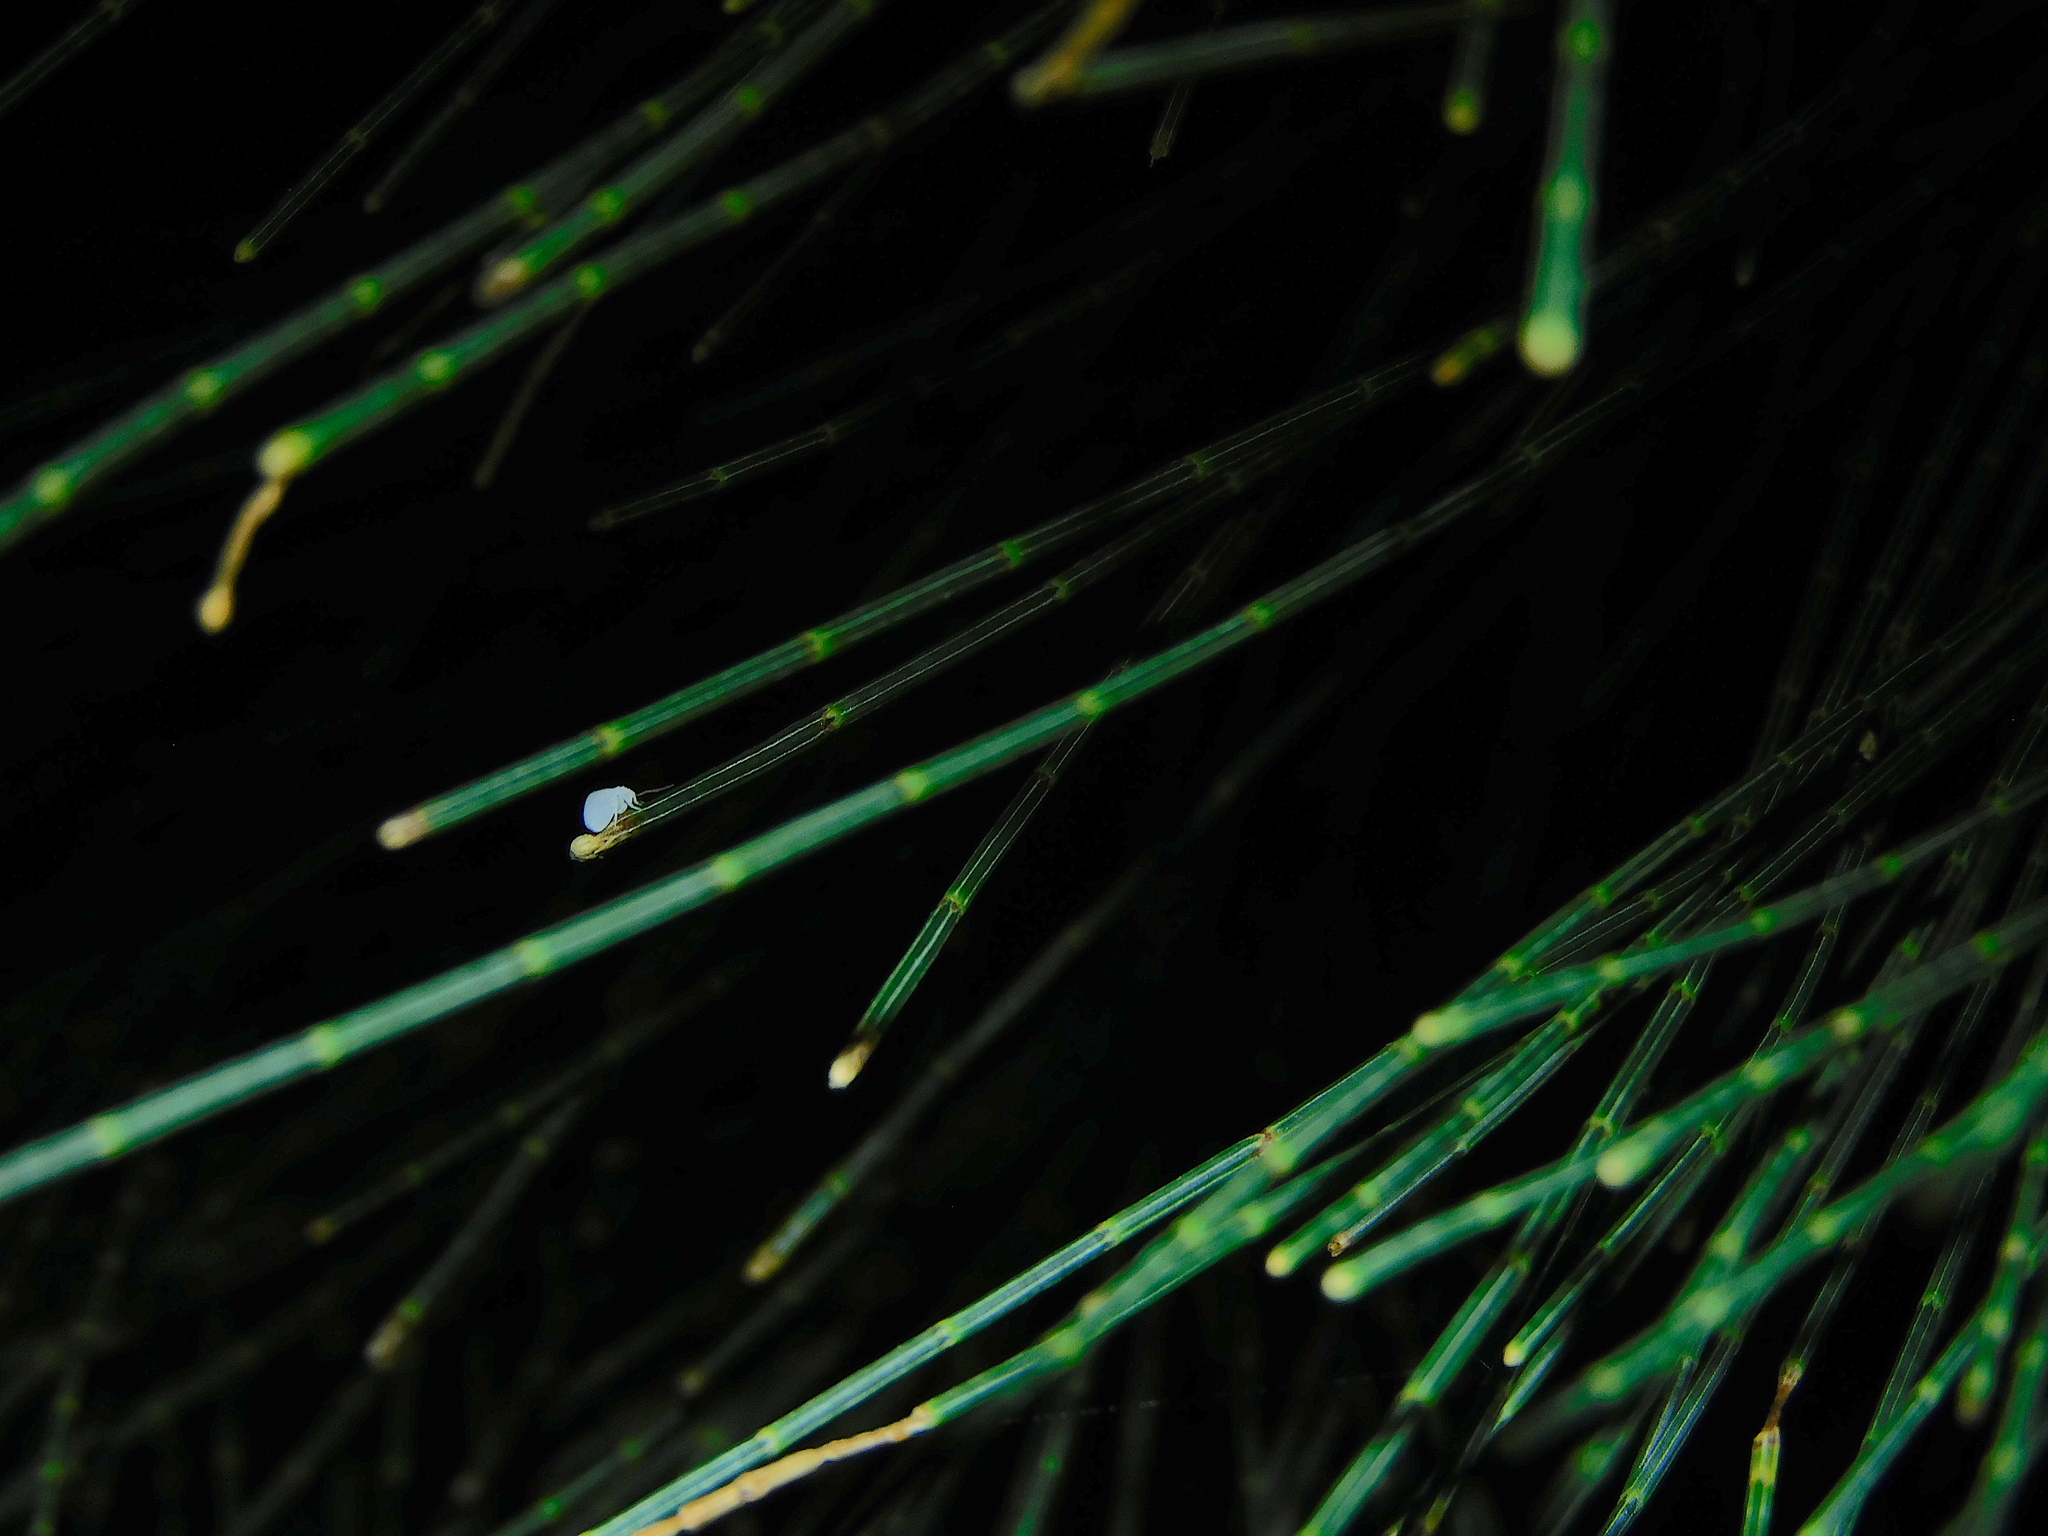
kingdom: Animalia
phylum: Arthropoda
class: Insecta
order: Neuroptera
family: Coniopterygidae
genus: Cryptoscenea
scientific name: Cryptoscenea australiensis
